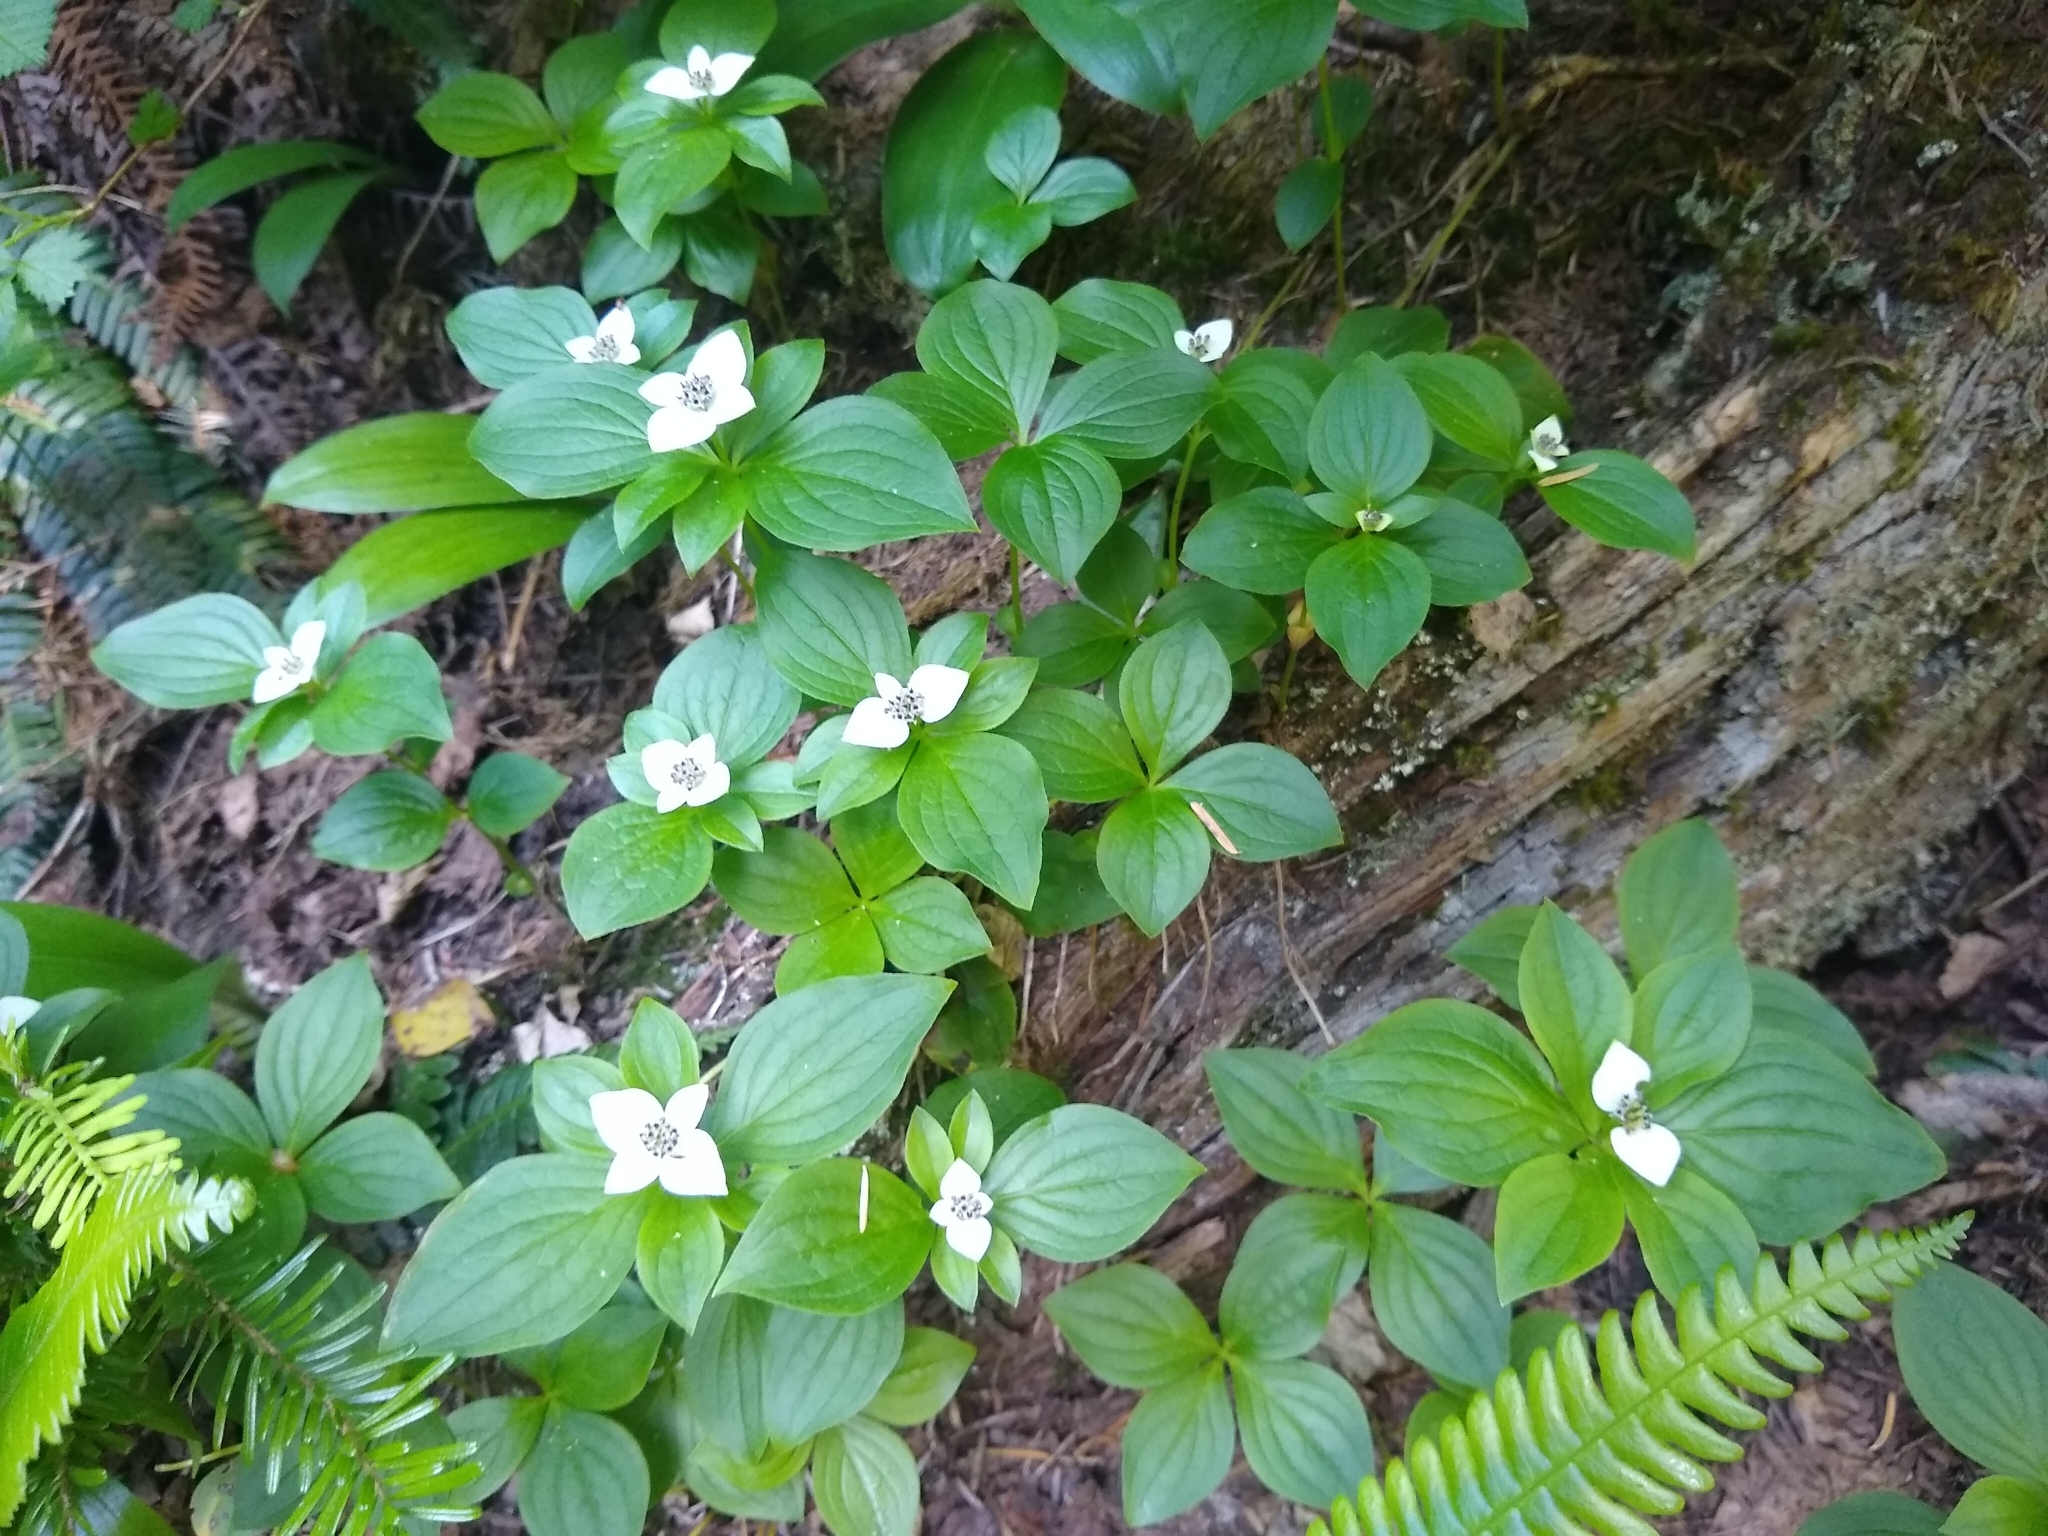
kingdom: Plantae
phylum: Tracheophyta
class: Magnoliopsida
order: Cornales
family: Cornaceae
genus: Cornus
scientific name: Cornus unalaschkensis
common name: Alaska bunchberry
